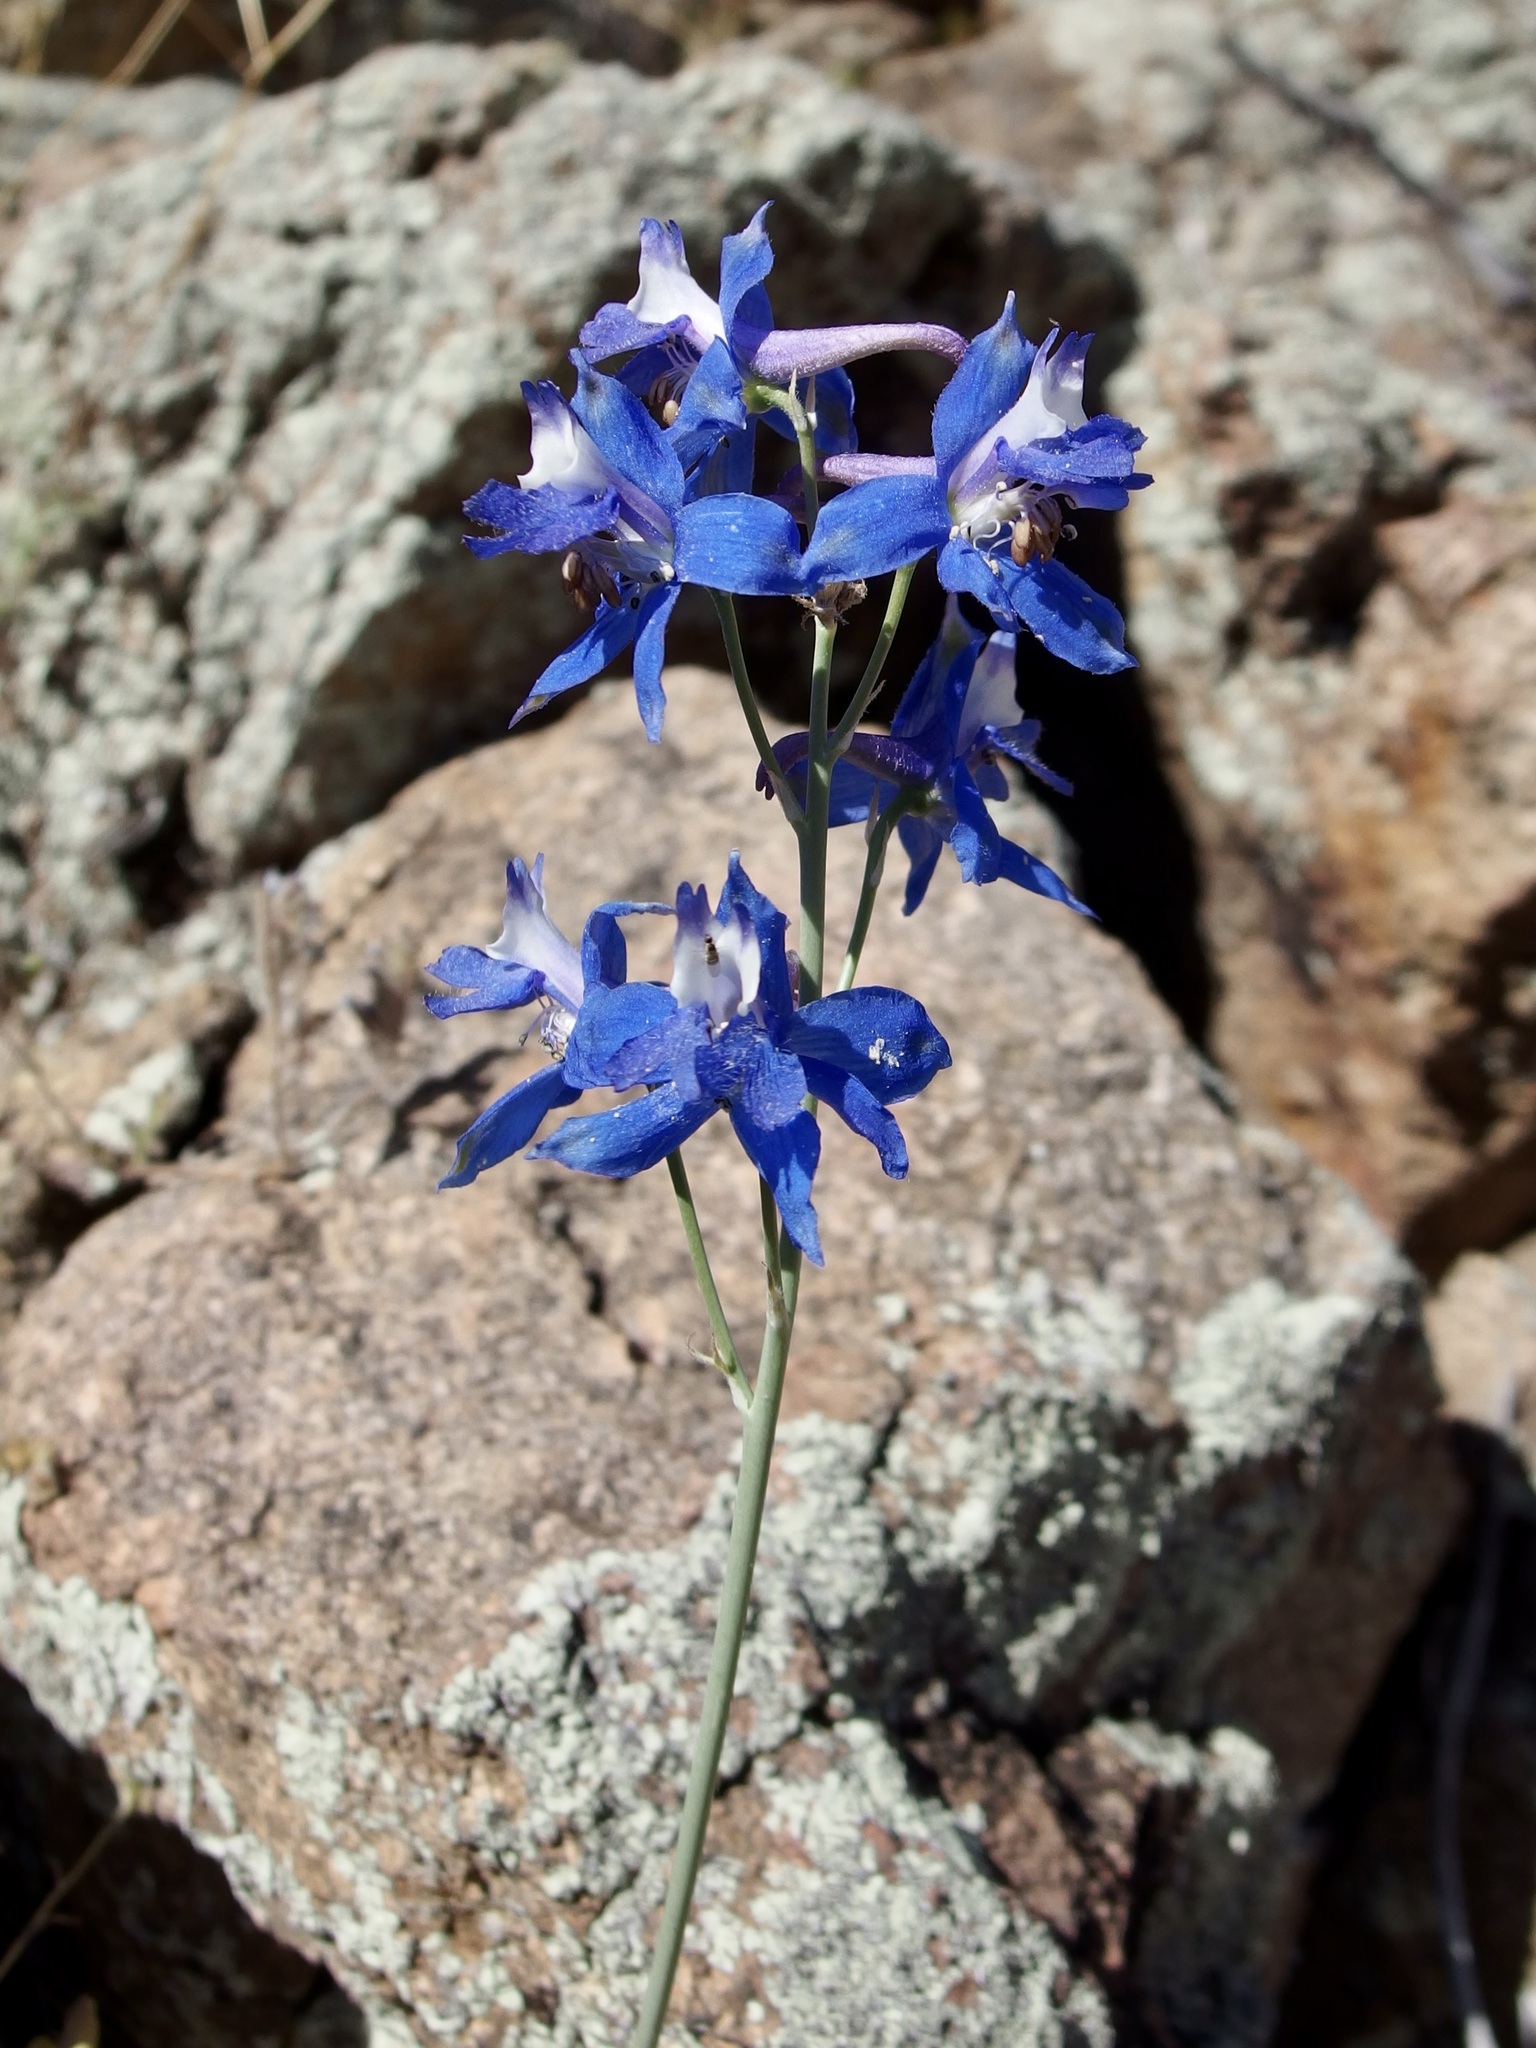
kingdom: Plantae
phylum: Tracheophyta
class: Magnoliopsida
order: Ranunculales
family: Ranunculaceae
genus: Delphinium
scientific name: Delphinium scaposum
